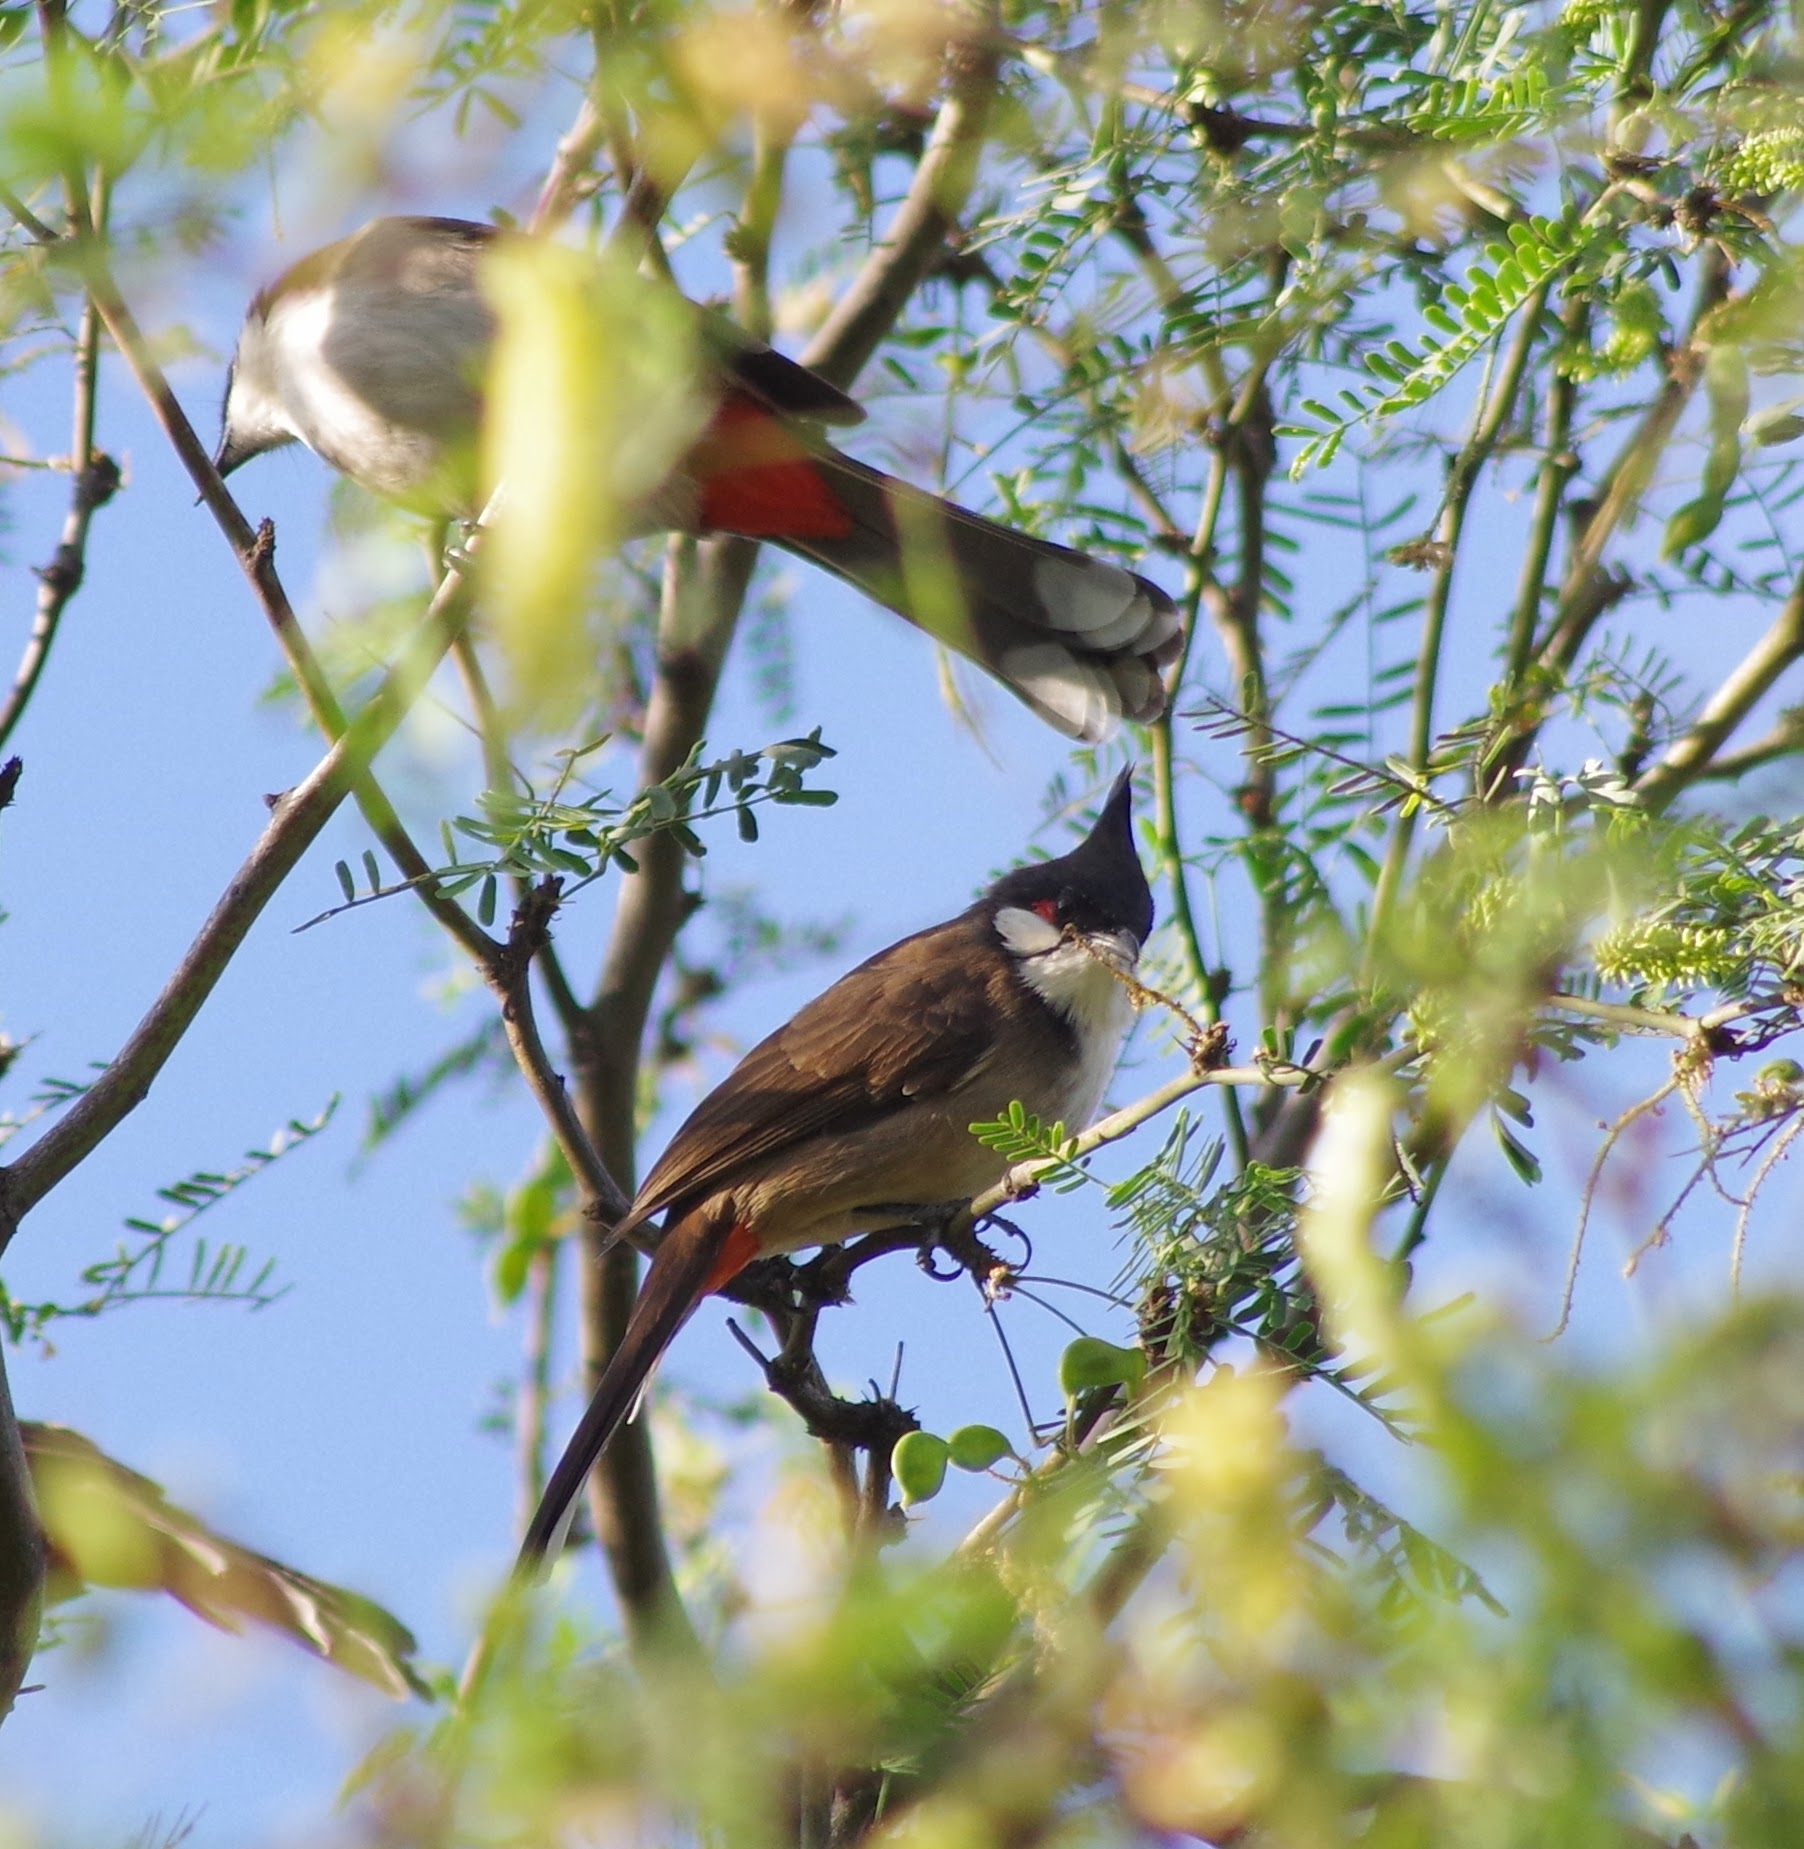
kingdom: Animalia
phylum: Chordata
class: Aves
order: Passeriformes
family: Pycnonotidae
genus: Pycnonotus
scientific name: Pycnonotus jocosus
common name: Red-whiskered bulbul
